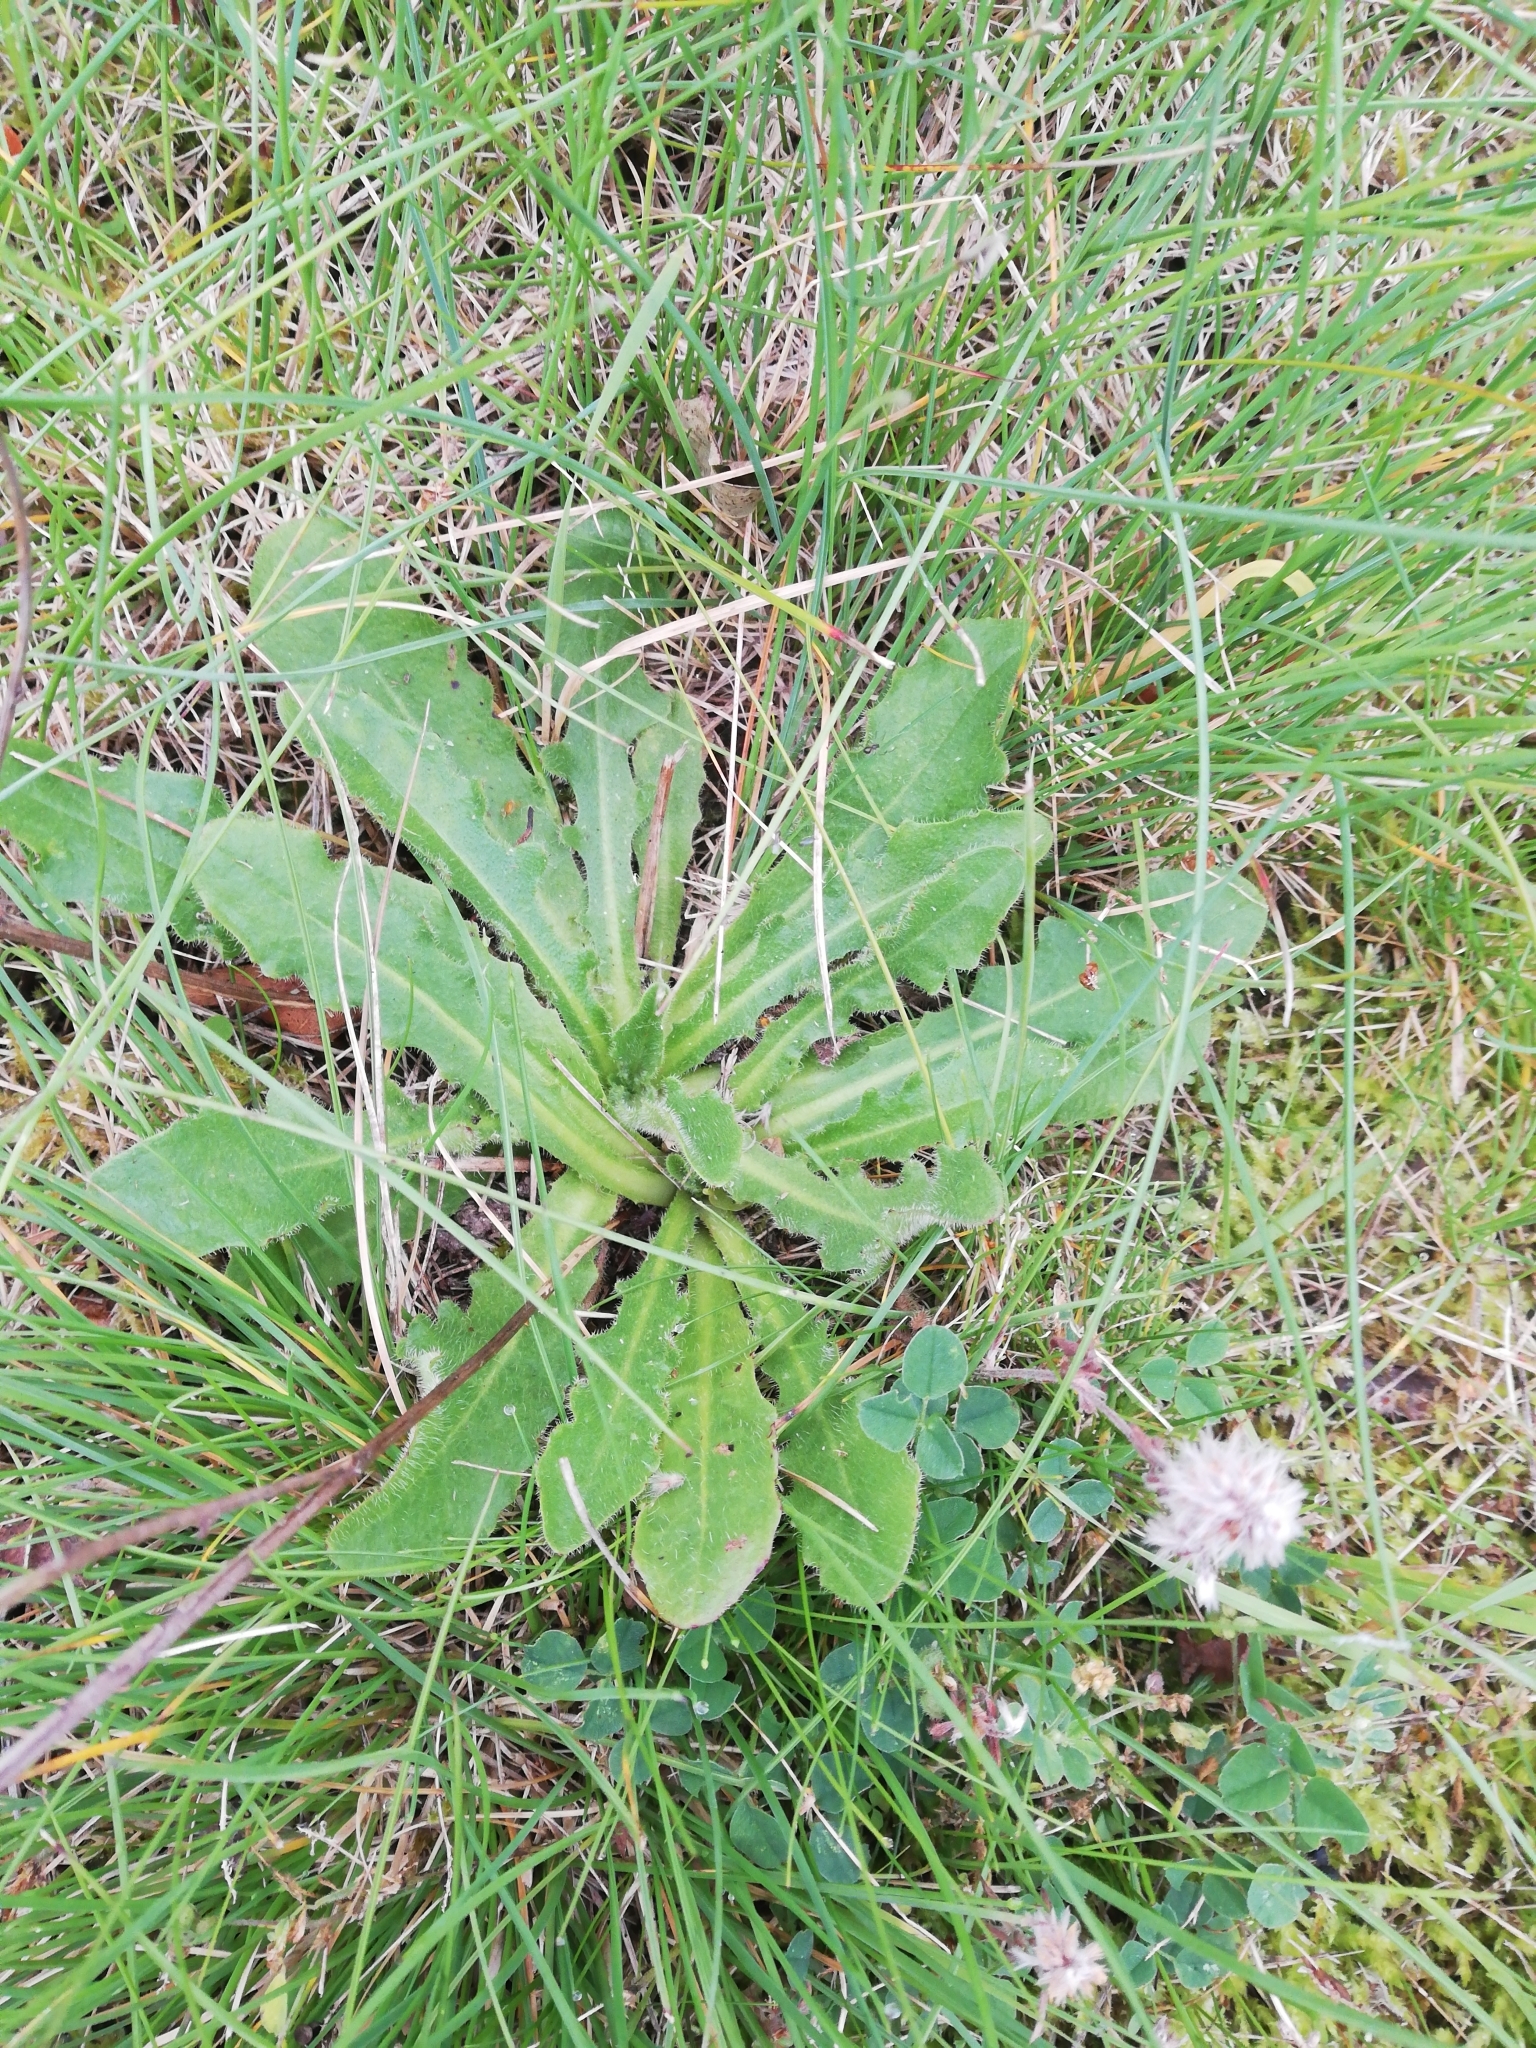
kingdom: Plantae
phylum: Tracheophyta
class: Magnoliopsida
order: Asterales
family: Asteraceae
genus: Hypochaeris
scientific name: Hypochaeris radicata
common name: Flatweed
